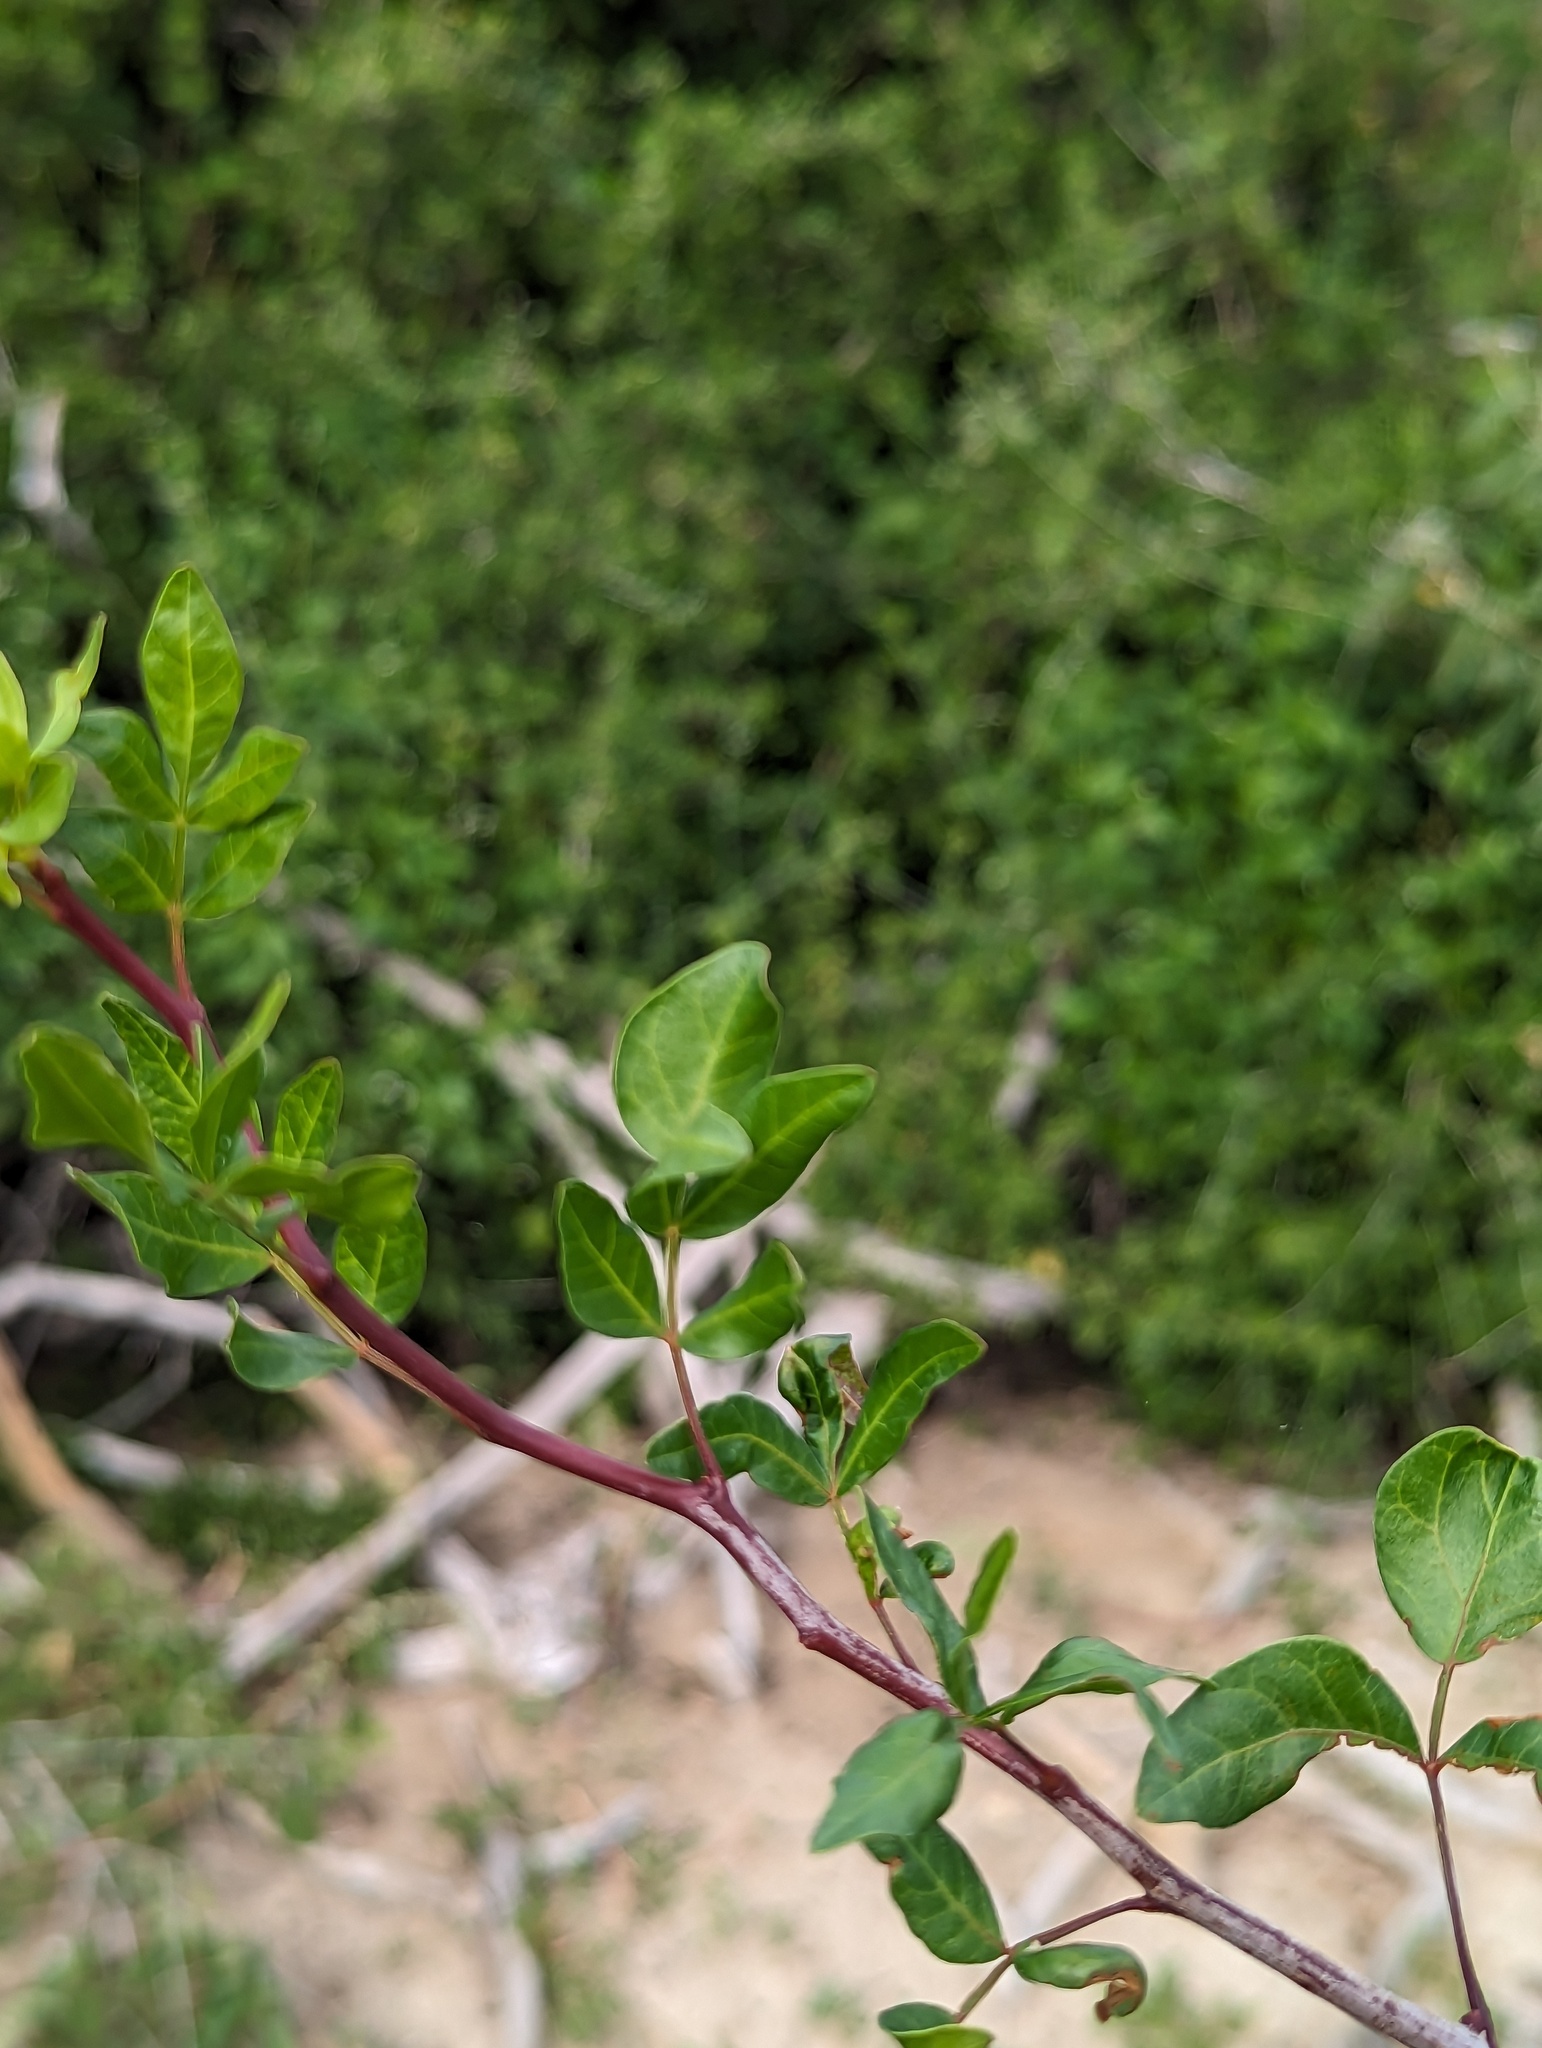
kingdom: Plantae
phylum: Tracheophyta
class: Magnoliopsida
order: Sapindales
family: Burseraceae
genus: Bursera
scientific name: Bursera fagaroides
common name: Elephant tree
